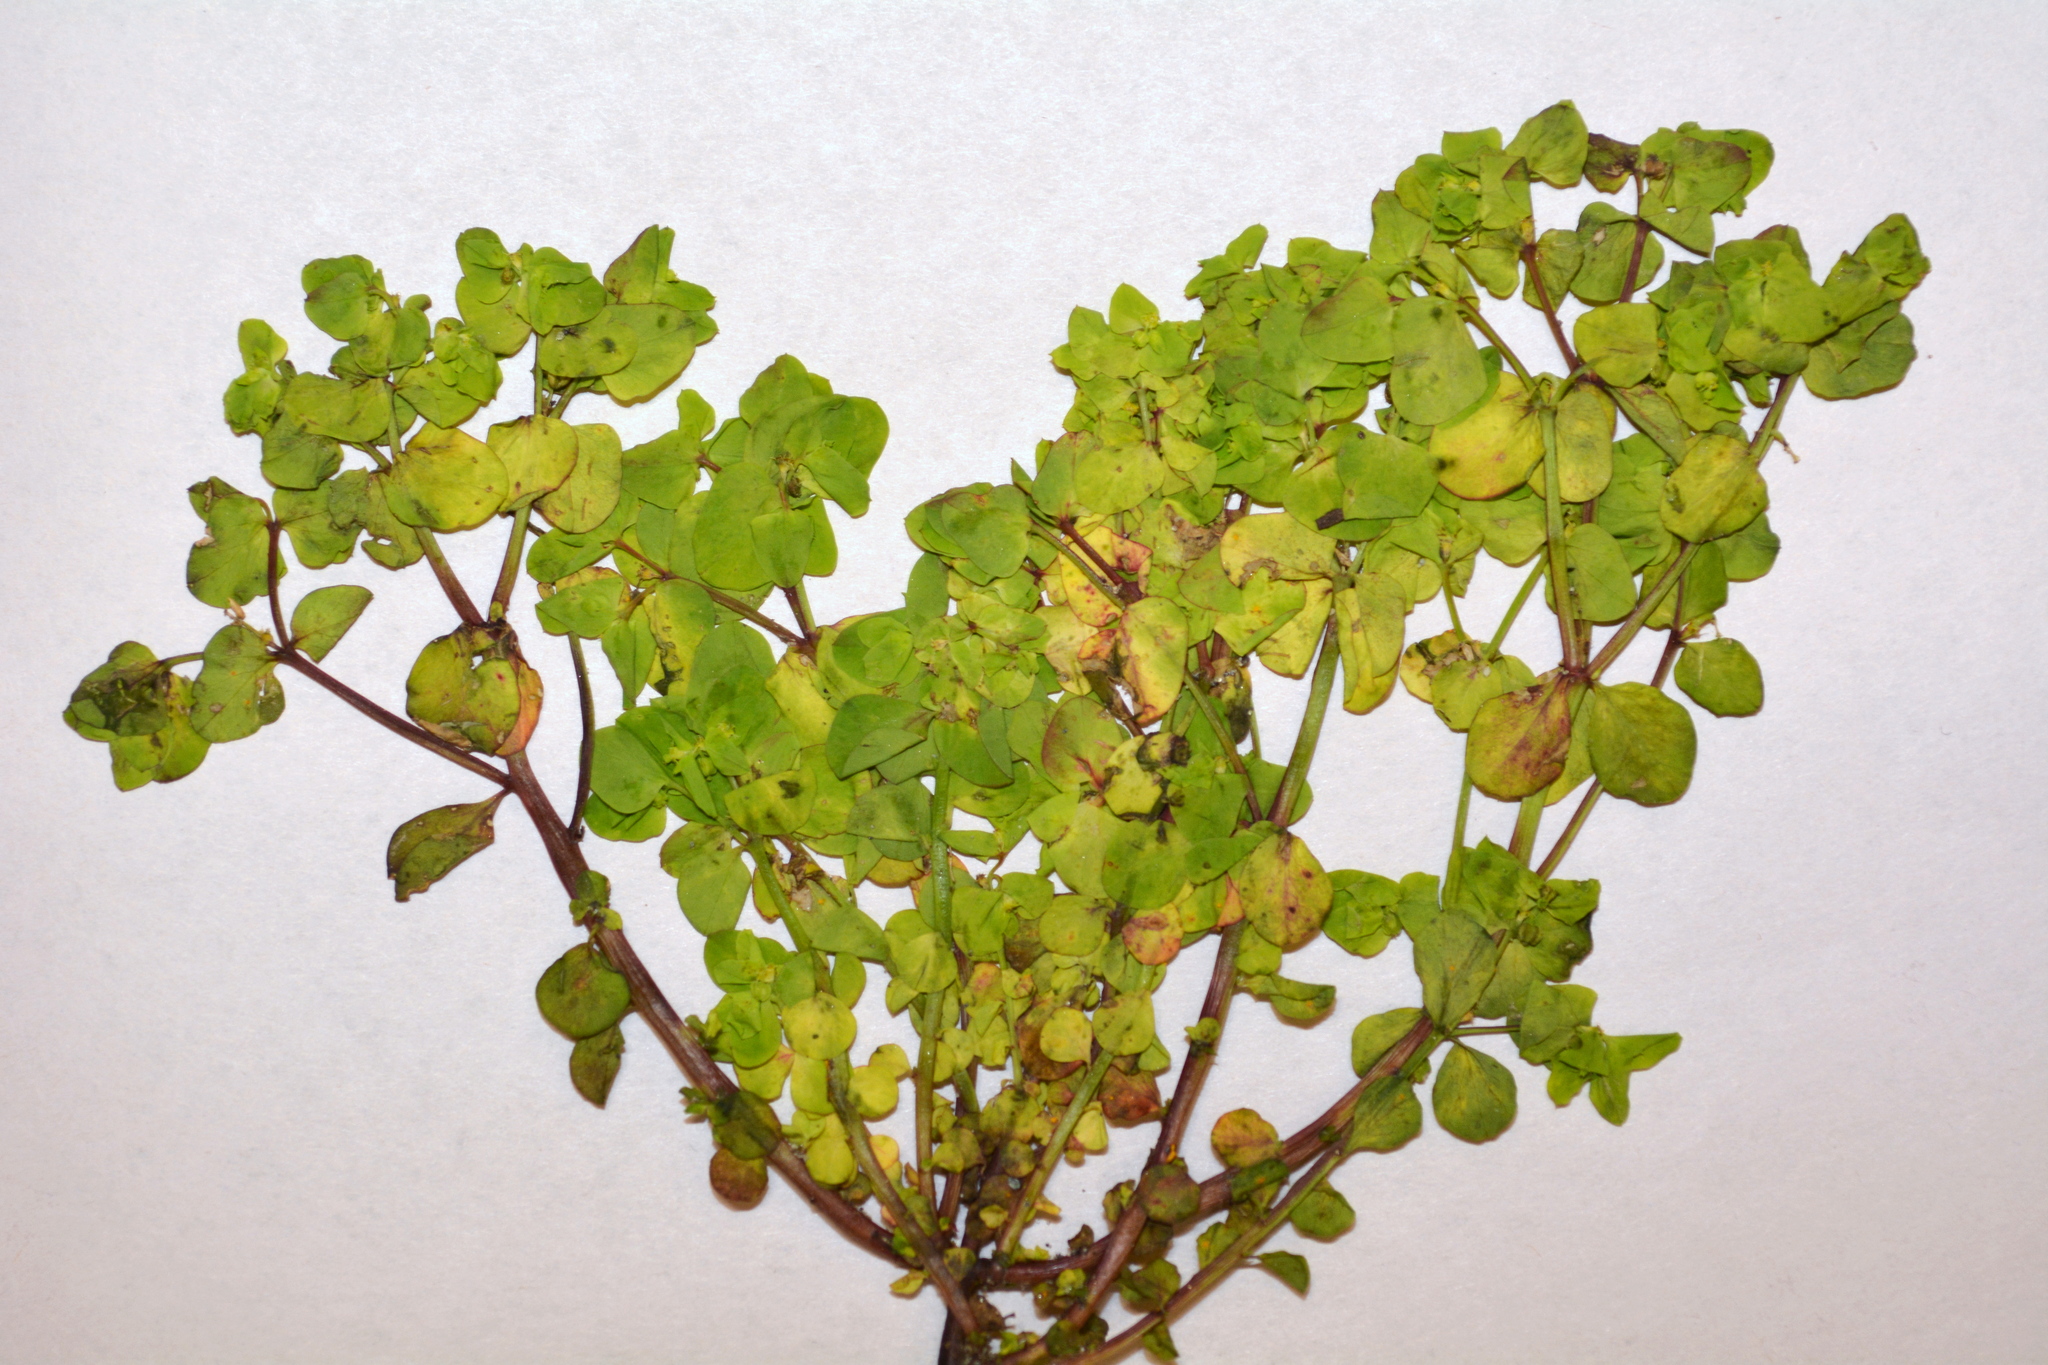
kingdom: Plantae
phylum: Tracheophyta
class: Magnoliopsida
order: Malpighiales
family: Euphorbiaceae
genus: Euphorbia
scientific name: Euphorbia peplus
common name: Petty spurge
